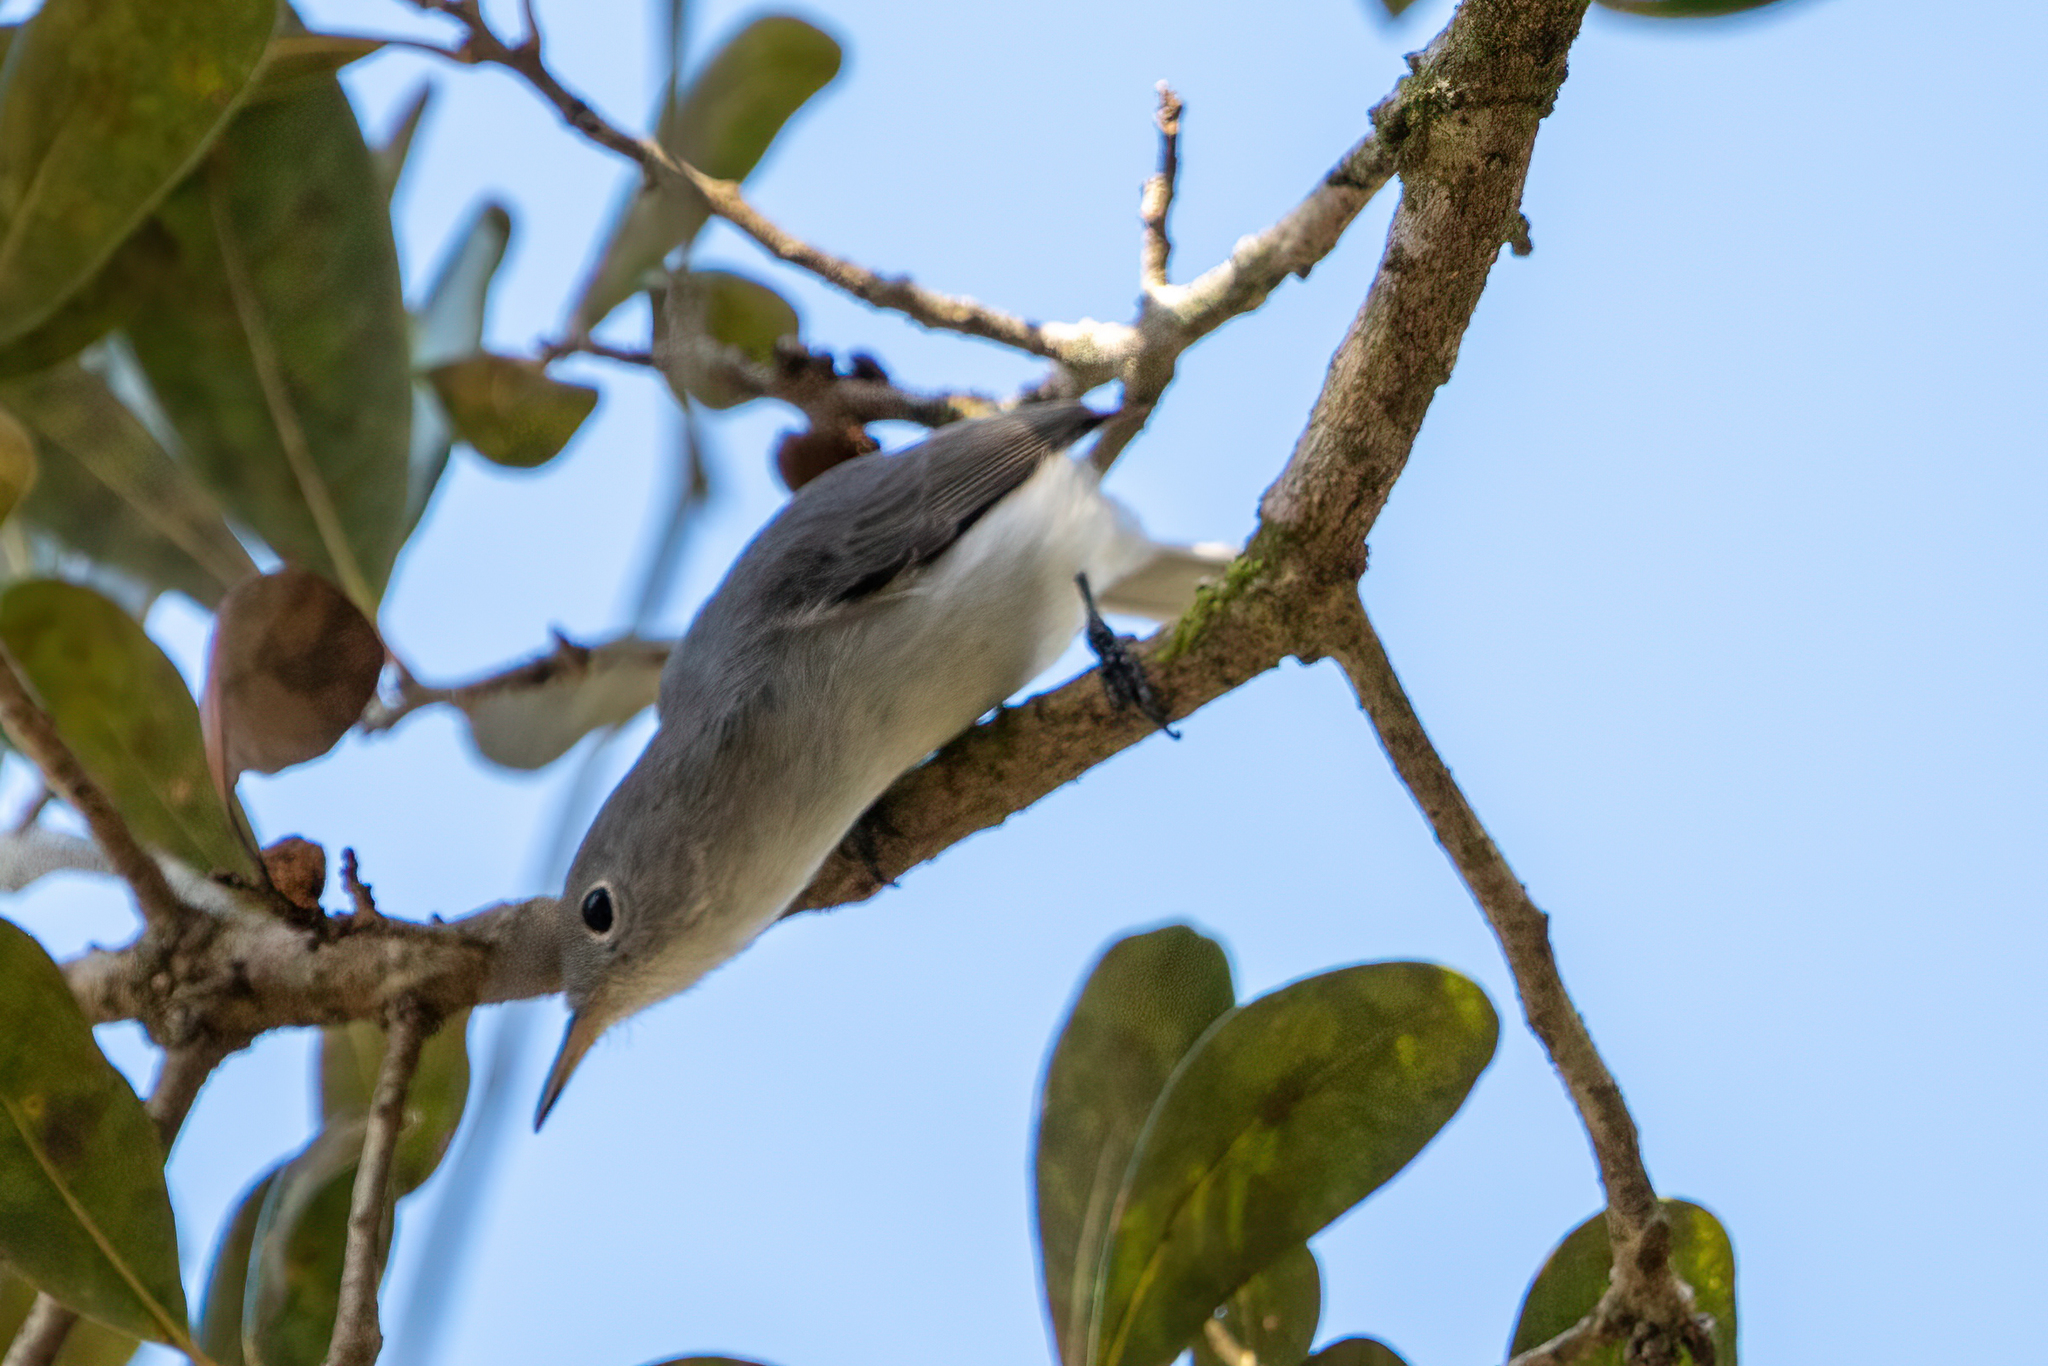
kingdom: Animalia
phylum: Chordata
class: Aves
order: Passeriformes
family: Polioptilidae
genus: Polioptila
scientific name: Polioptila caerulea
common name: Blue-gray gnatcatcher
